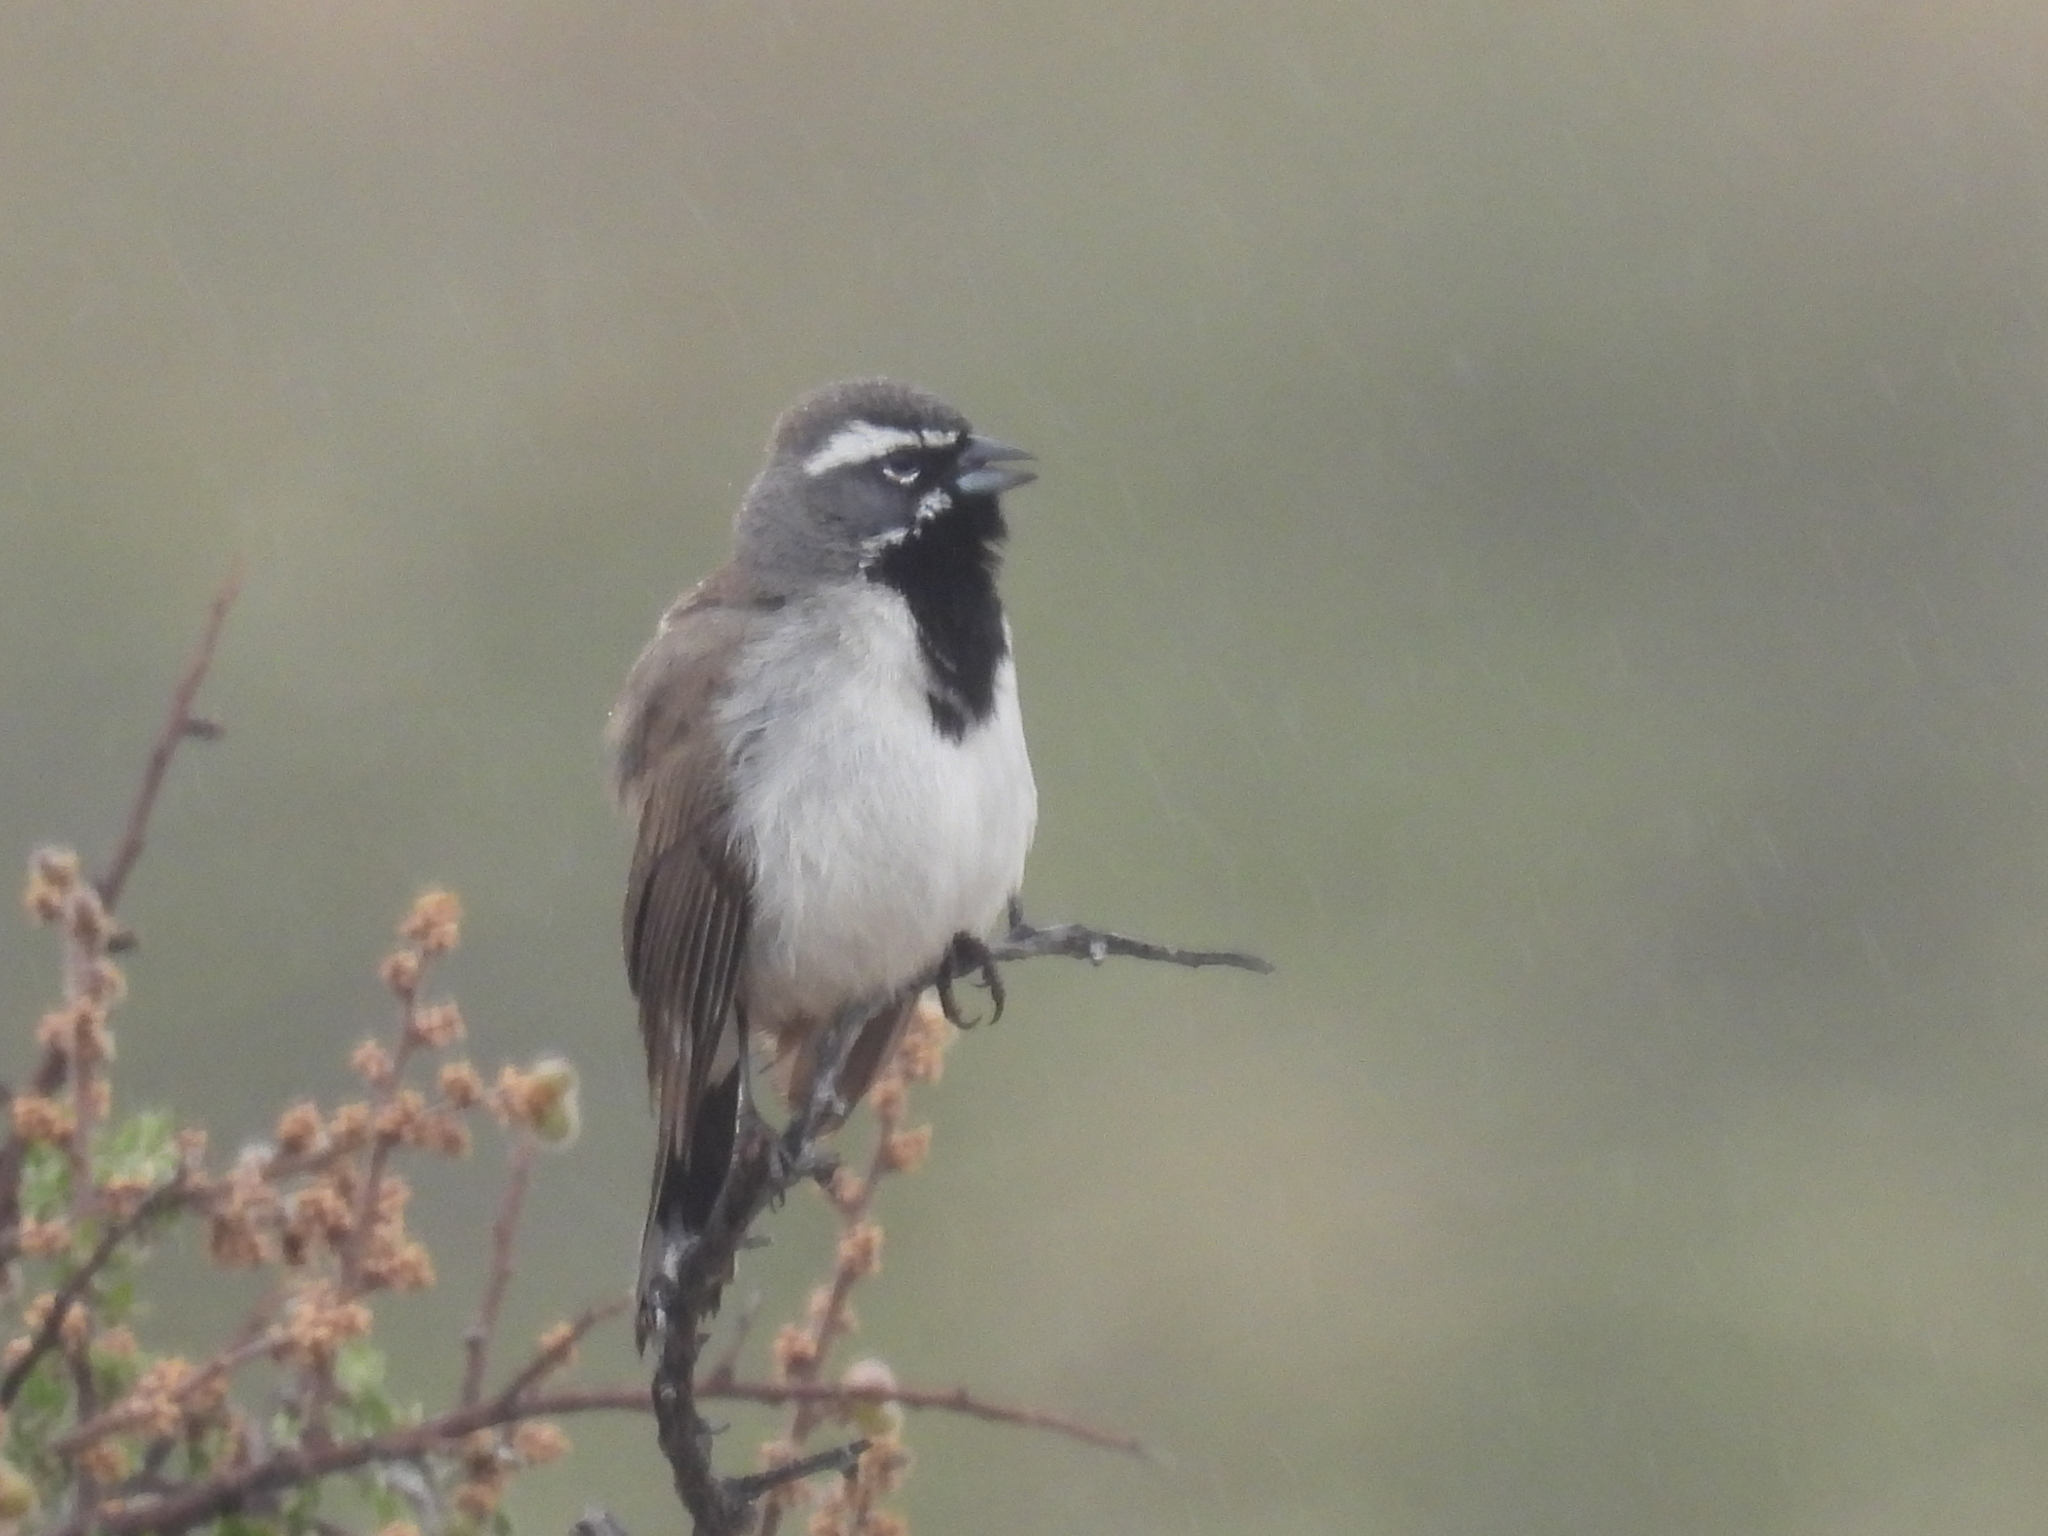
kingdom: Animalia
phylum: Chordata
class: Aves
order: Passeriformes
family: Passerellidae
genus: Amphispiza
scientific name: Amphispiza bilineata
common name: Black-throated sparrow
